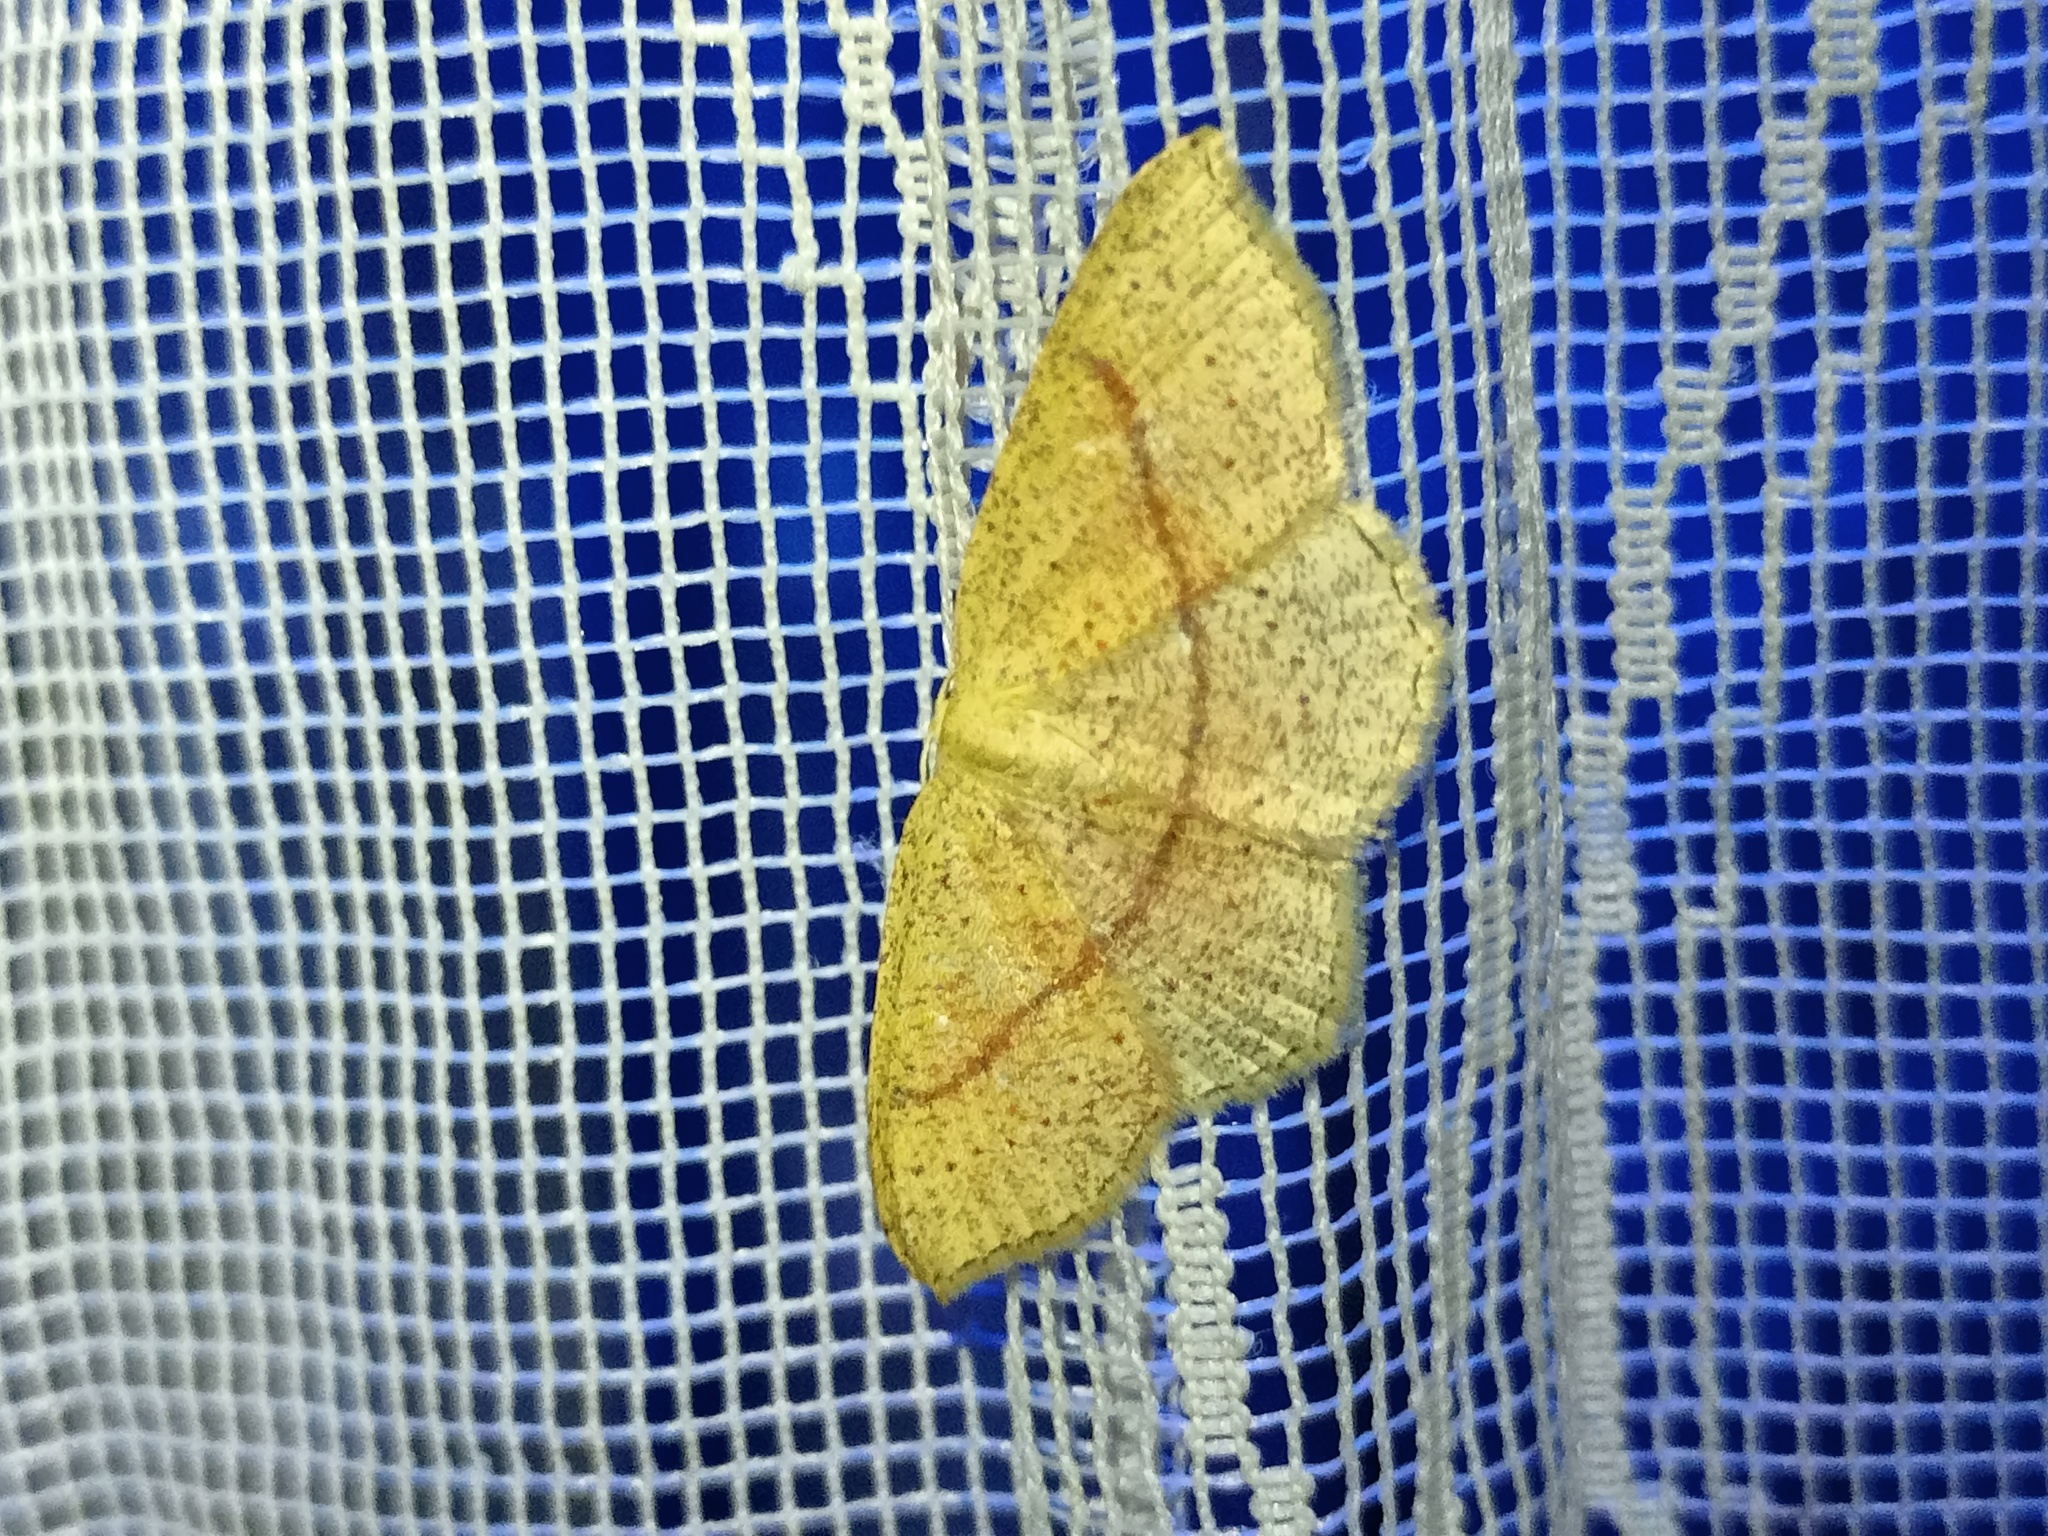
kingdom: Animalia
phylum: Arthropoda
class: Insecta
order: Lepidoptera
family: Geometridae
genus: Cyclophora
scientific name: Cyclophora quercimontaria
